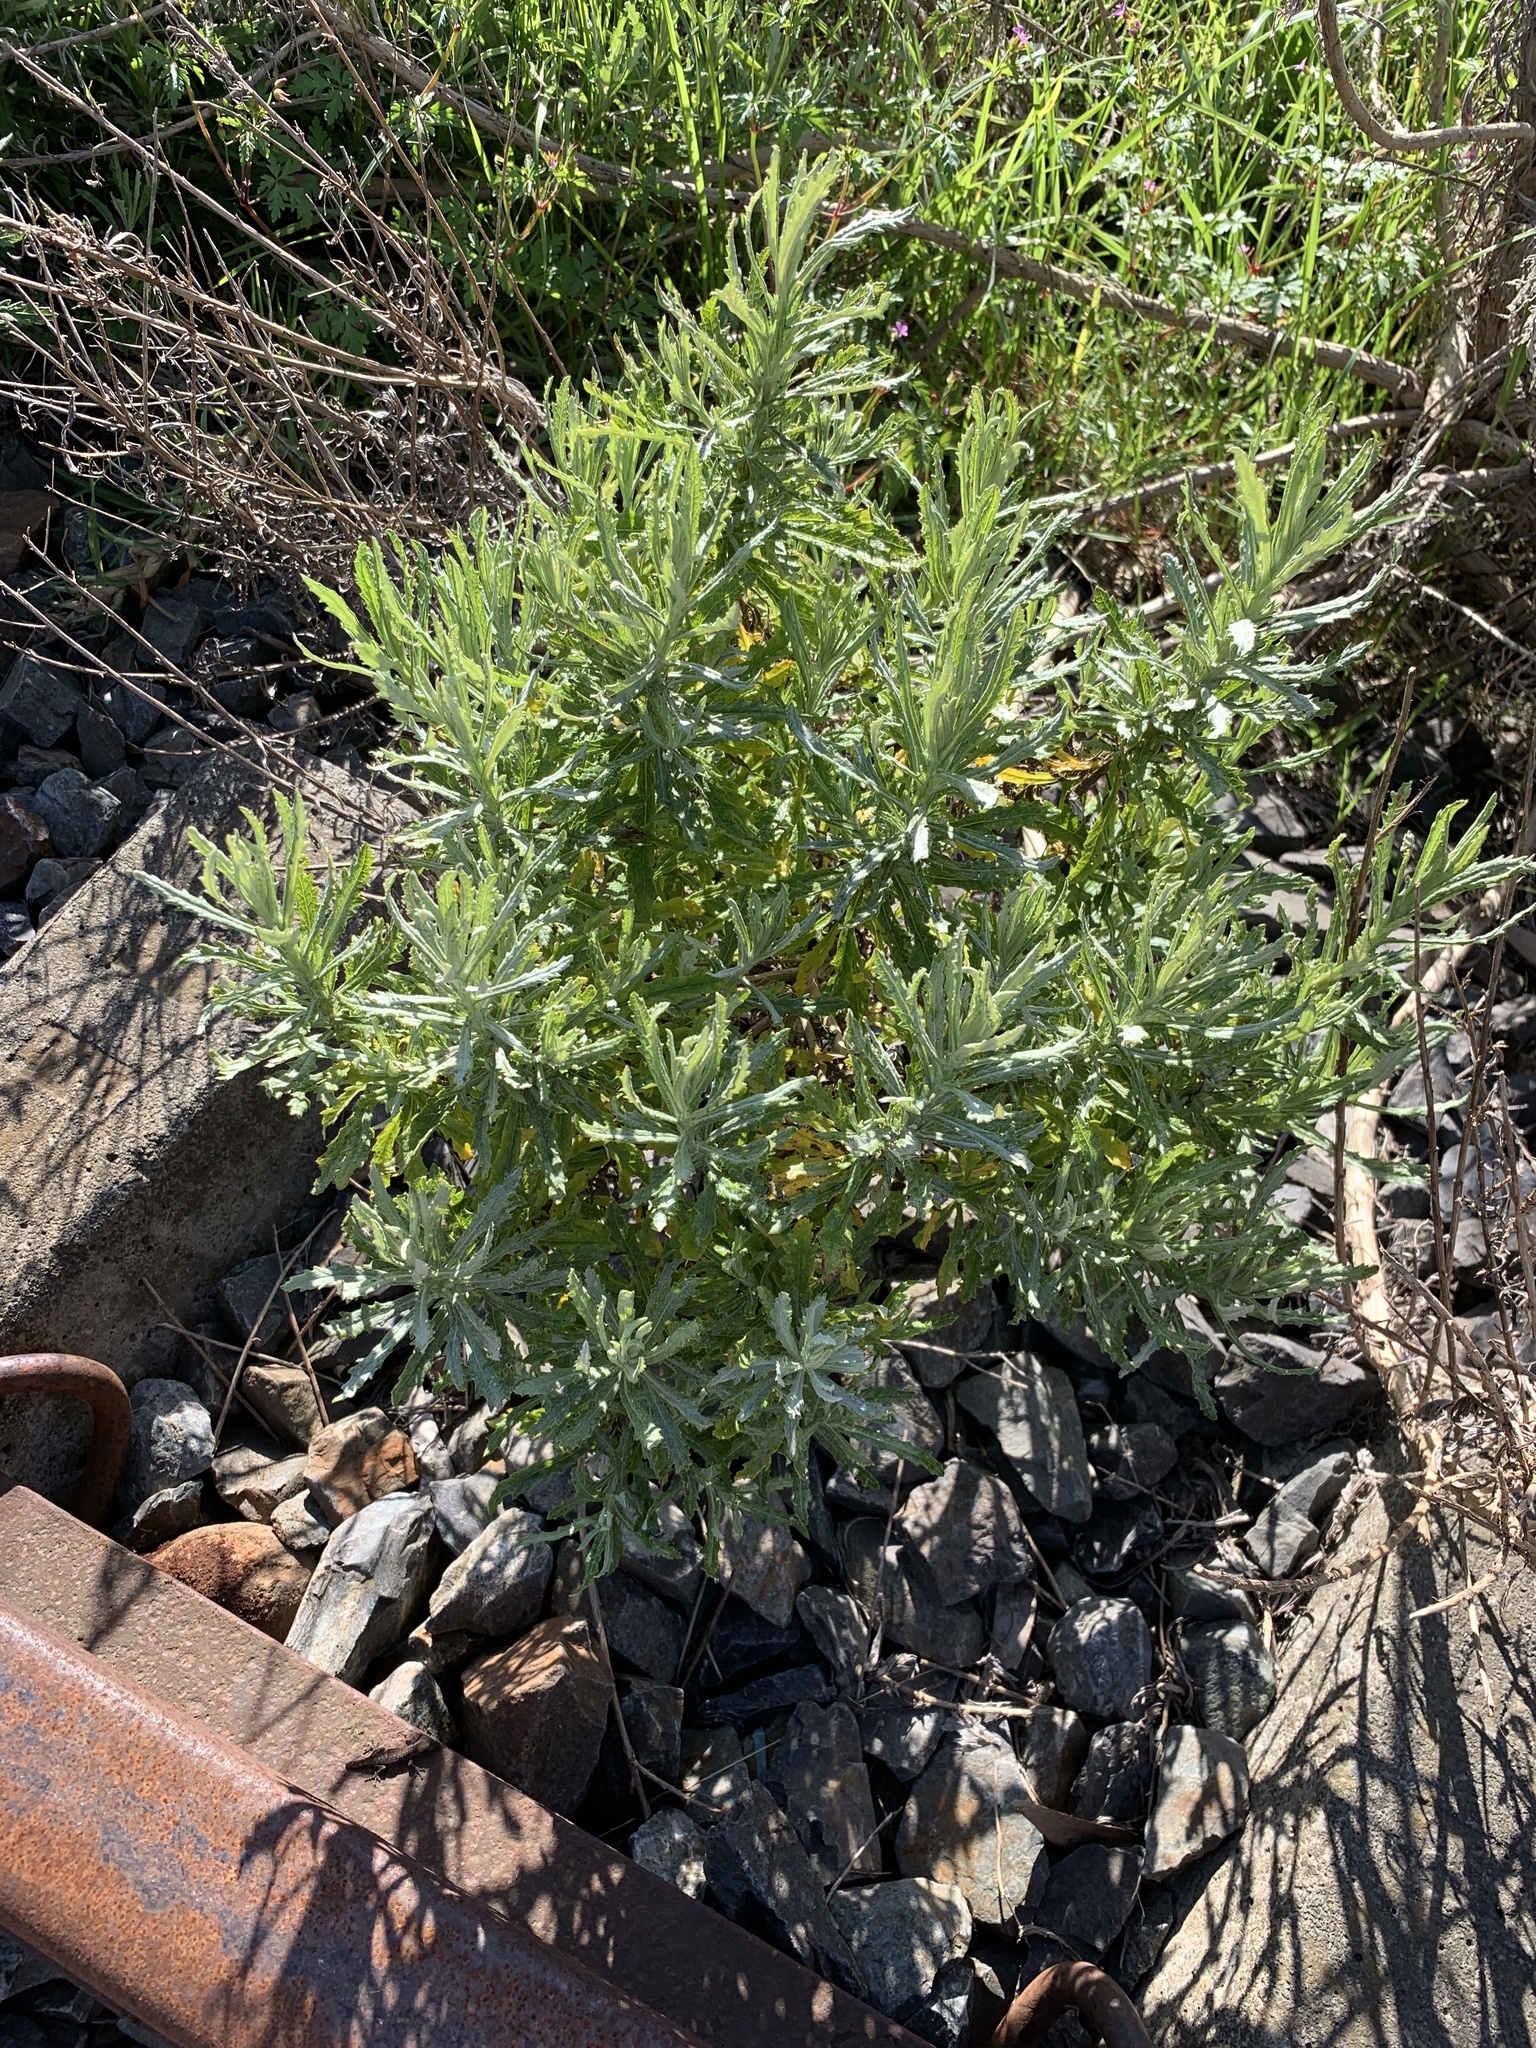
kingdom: Plantae
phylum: Tracheophyta
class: Magnoliopsida
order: Asterales
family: Asteraceae
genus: Senecio
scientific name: Senecio pterophorus
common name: Shoddy ragwort
